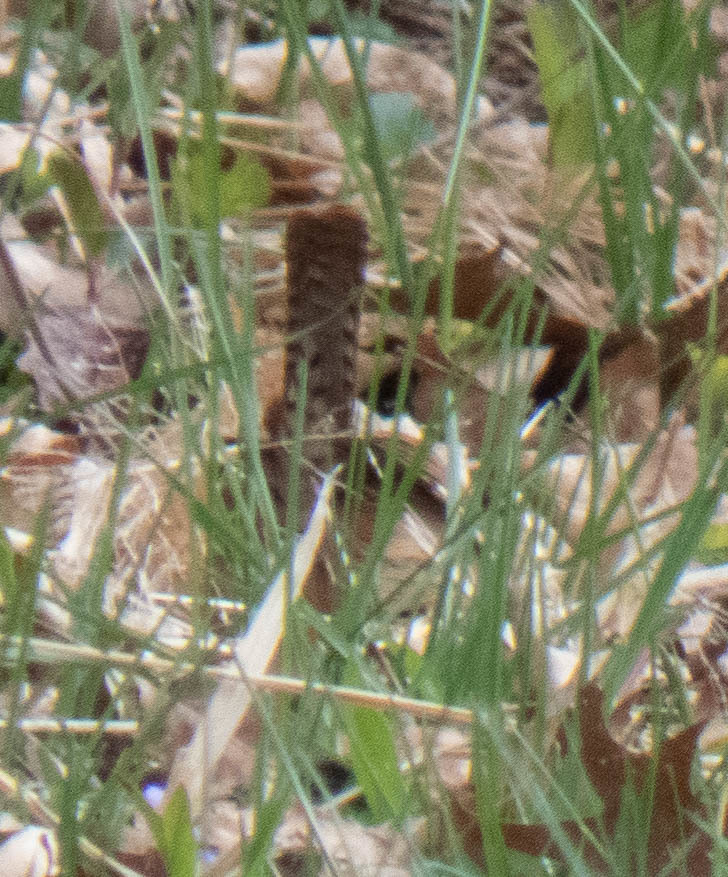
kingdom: Animalia
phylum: Chordata
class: Aves
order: Passeriformes
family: Troglodytidae
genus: Thryothorus
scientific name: Thryothorus ludovicianus
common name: Carolina wren
